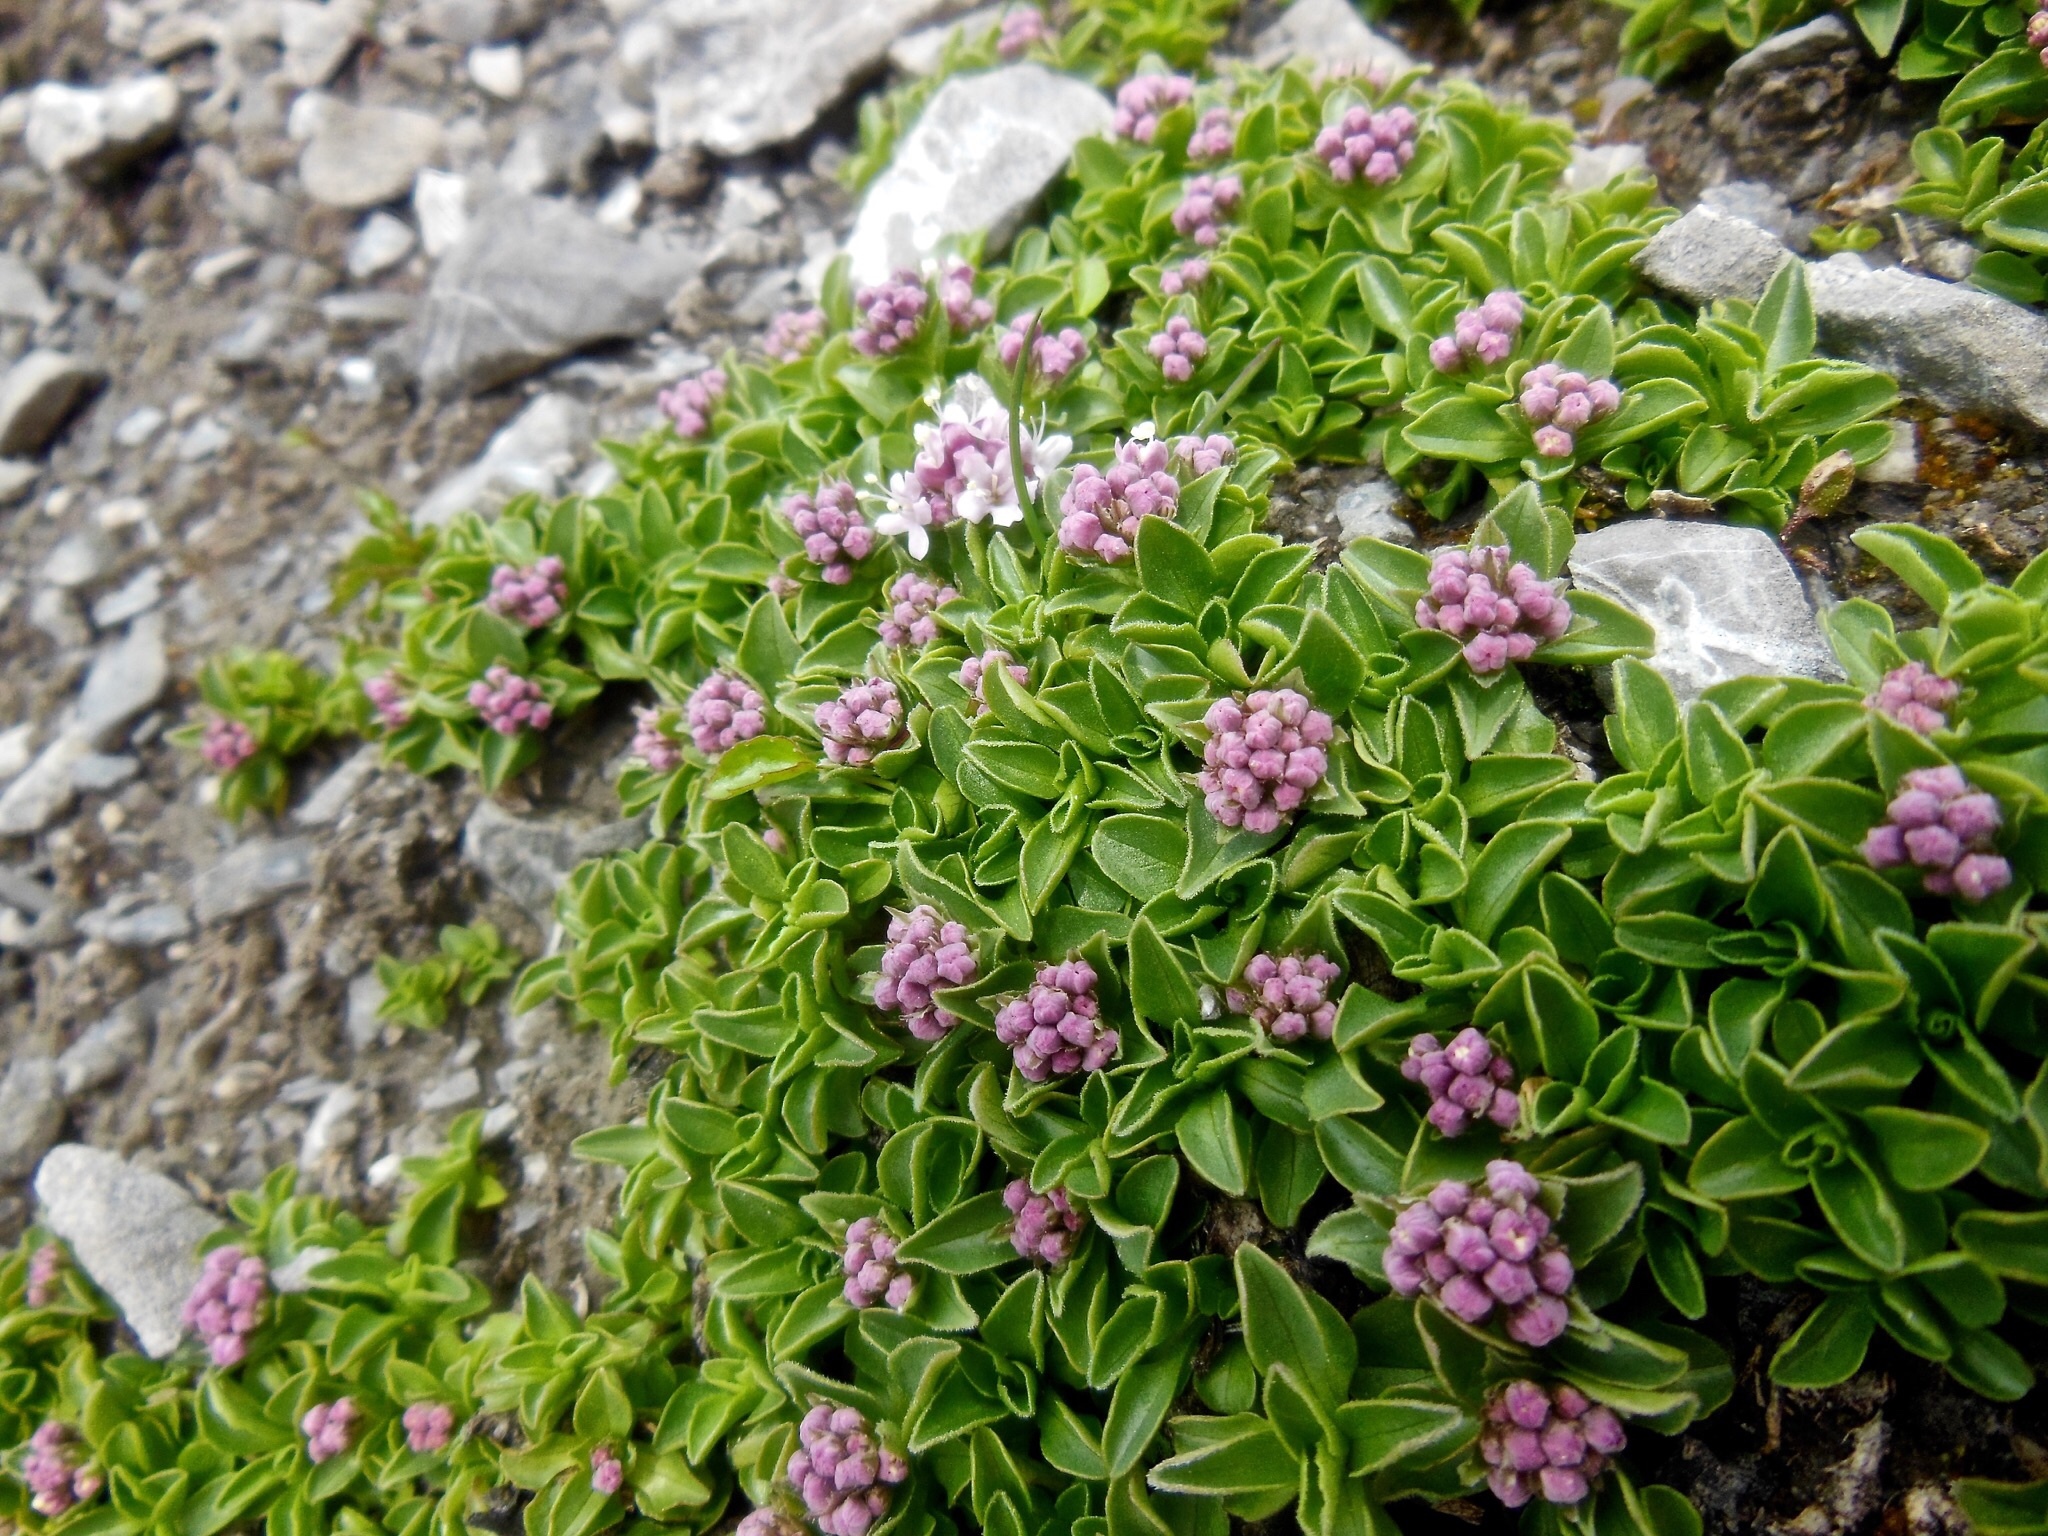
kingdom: Plantae
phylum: Tracheophyta
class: Magnoliopsida
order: Dipsacales
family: Caprifoliaceae
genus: Valeriana
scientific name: Valeriana supina
